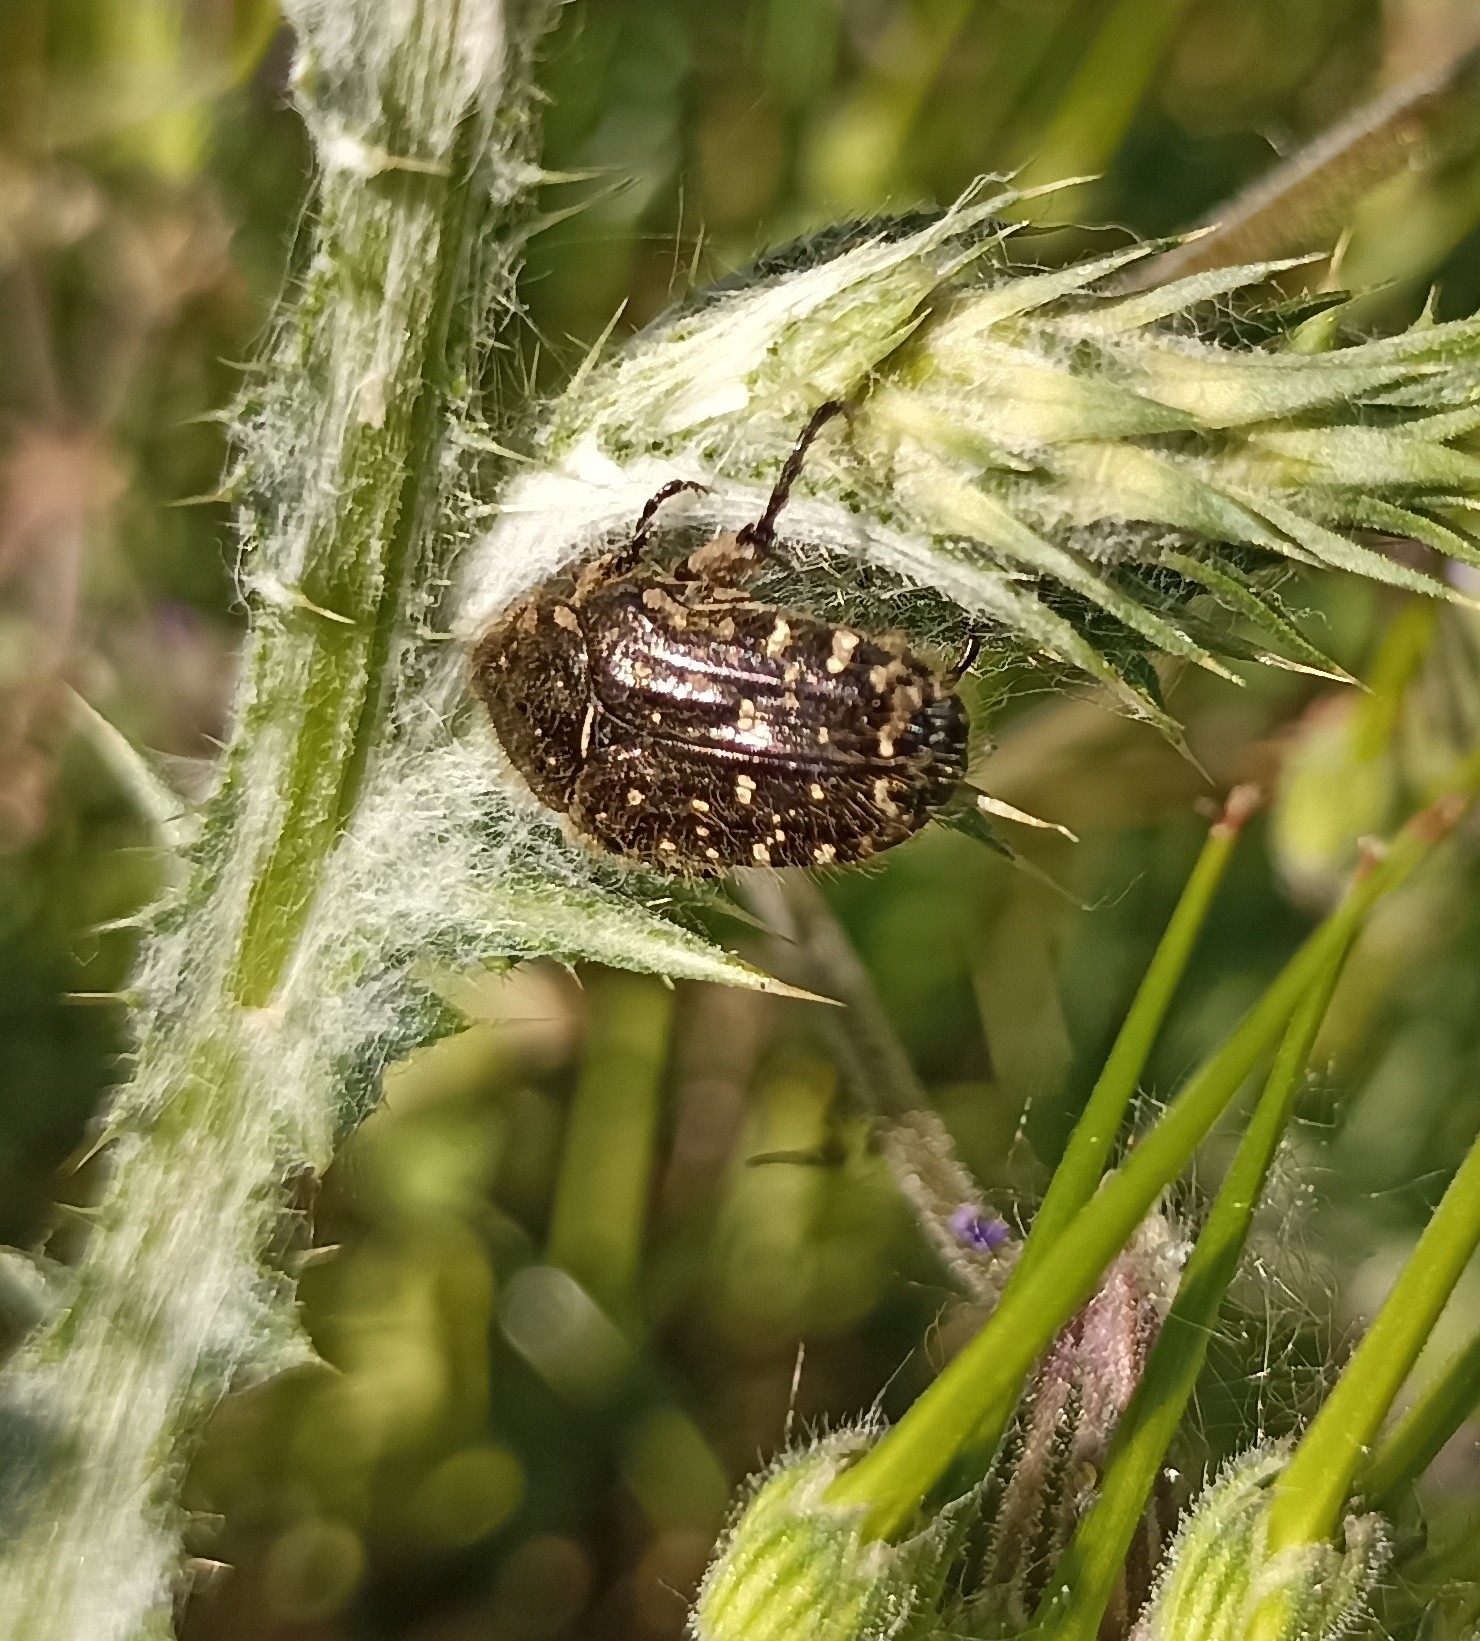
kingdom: Animalia
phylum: Arthropoda
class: Insecta
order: Coleoptera
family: Scarabaeidae
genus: Oxythyrea
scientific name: Oxythyrea funesta
